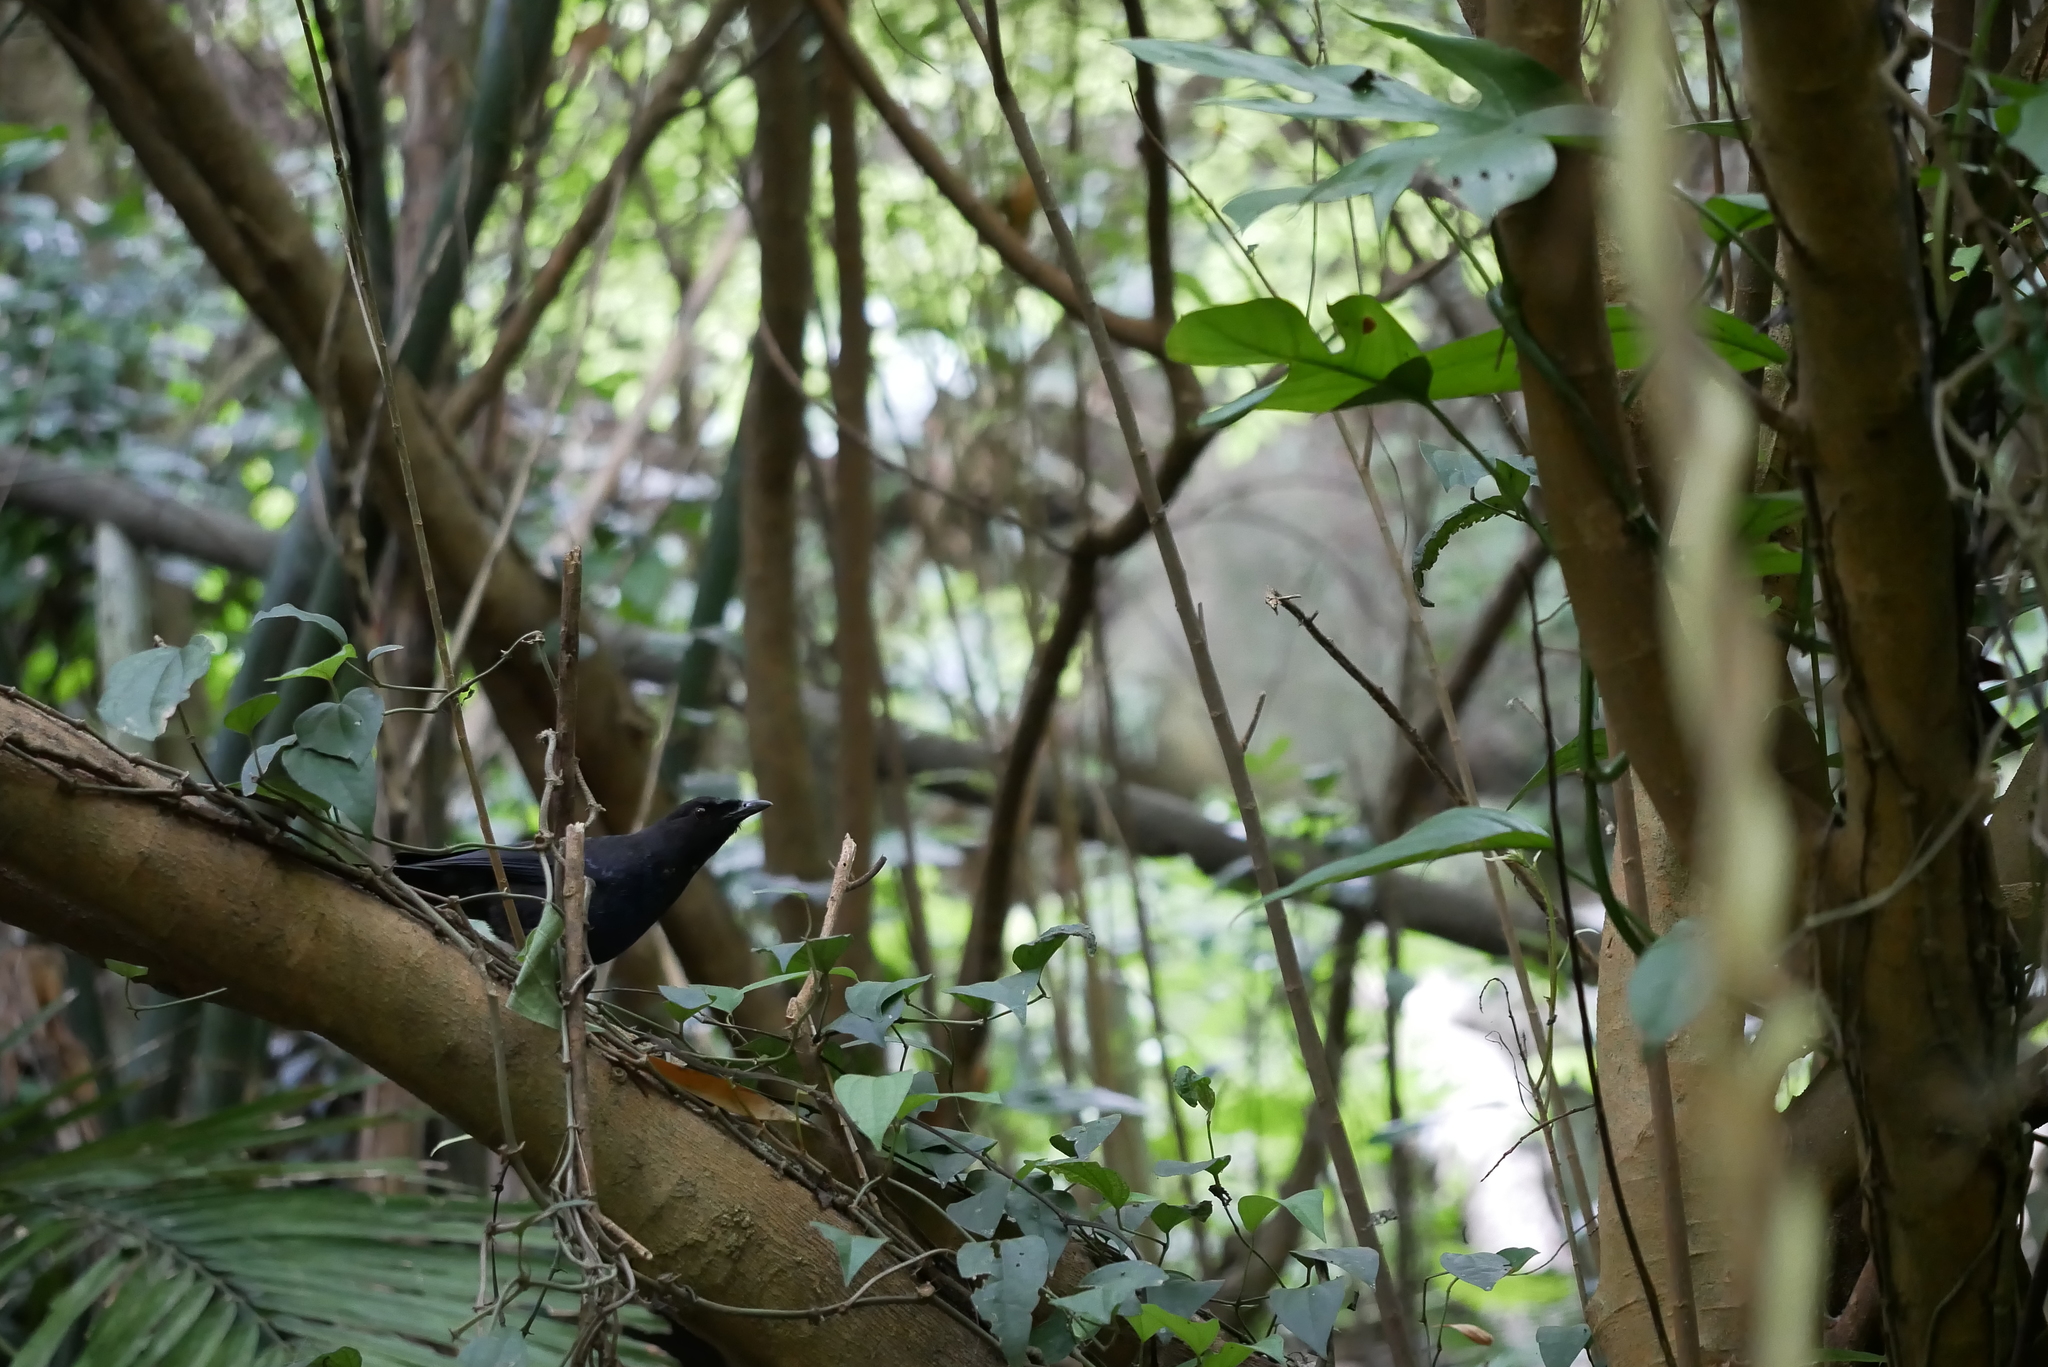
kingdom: Animalia
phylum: Chordata
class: Aves
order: Passeriformes
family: Muscicapidae
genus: Myophonus
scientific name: Myophonus insularis
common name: Taiwan whistling-thrush
